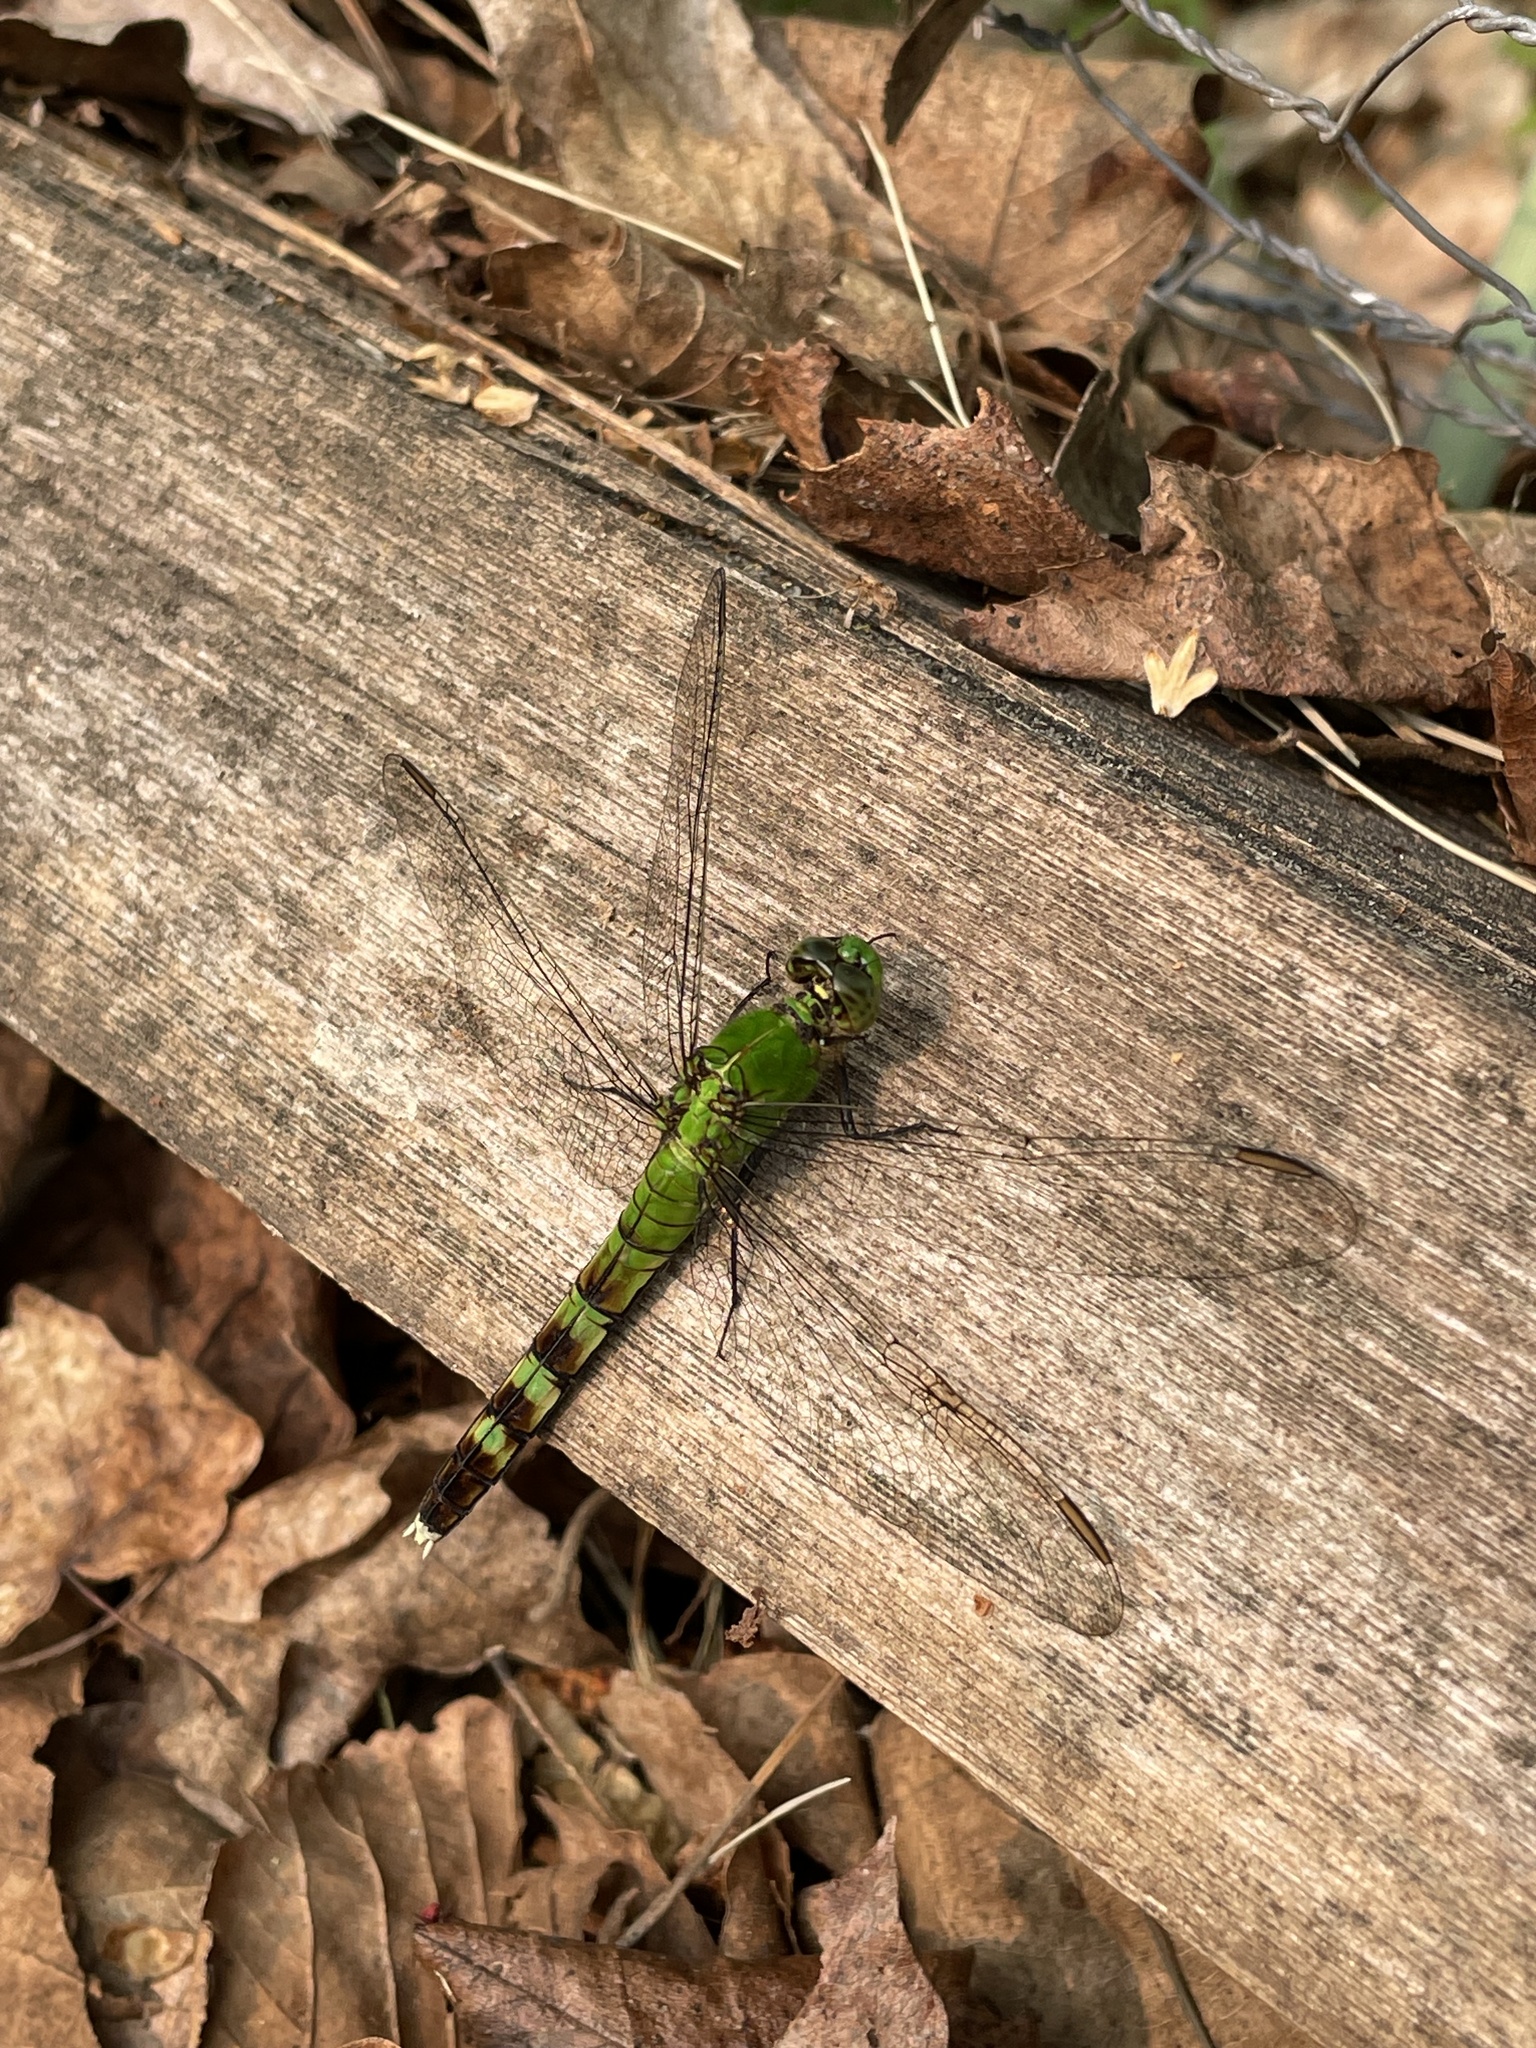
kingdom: Animalia
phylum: Arthropoda
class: Insecta
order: Odonata
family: Libellulidae
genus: Erythemis
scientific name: Erythemis simplicicollis
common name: Eastern pondhawk
